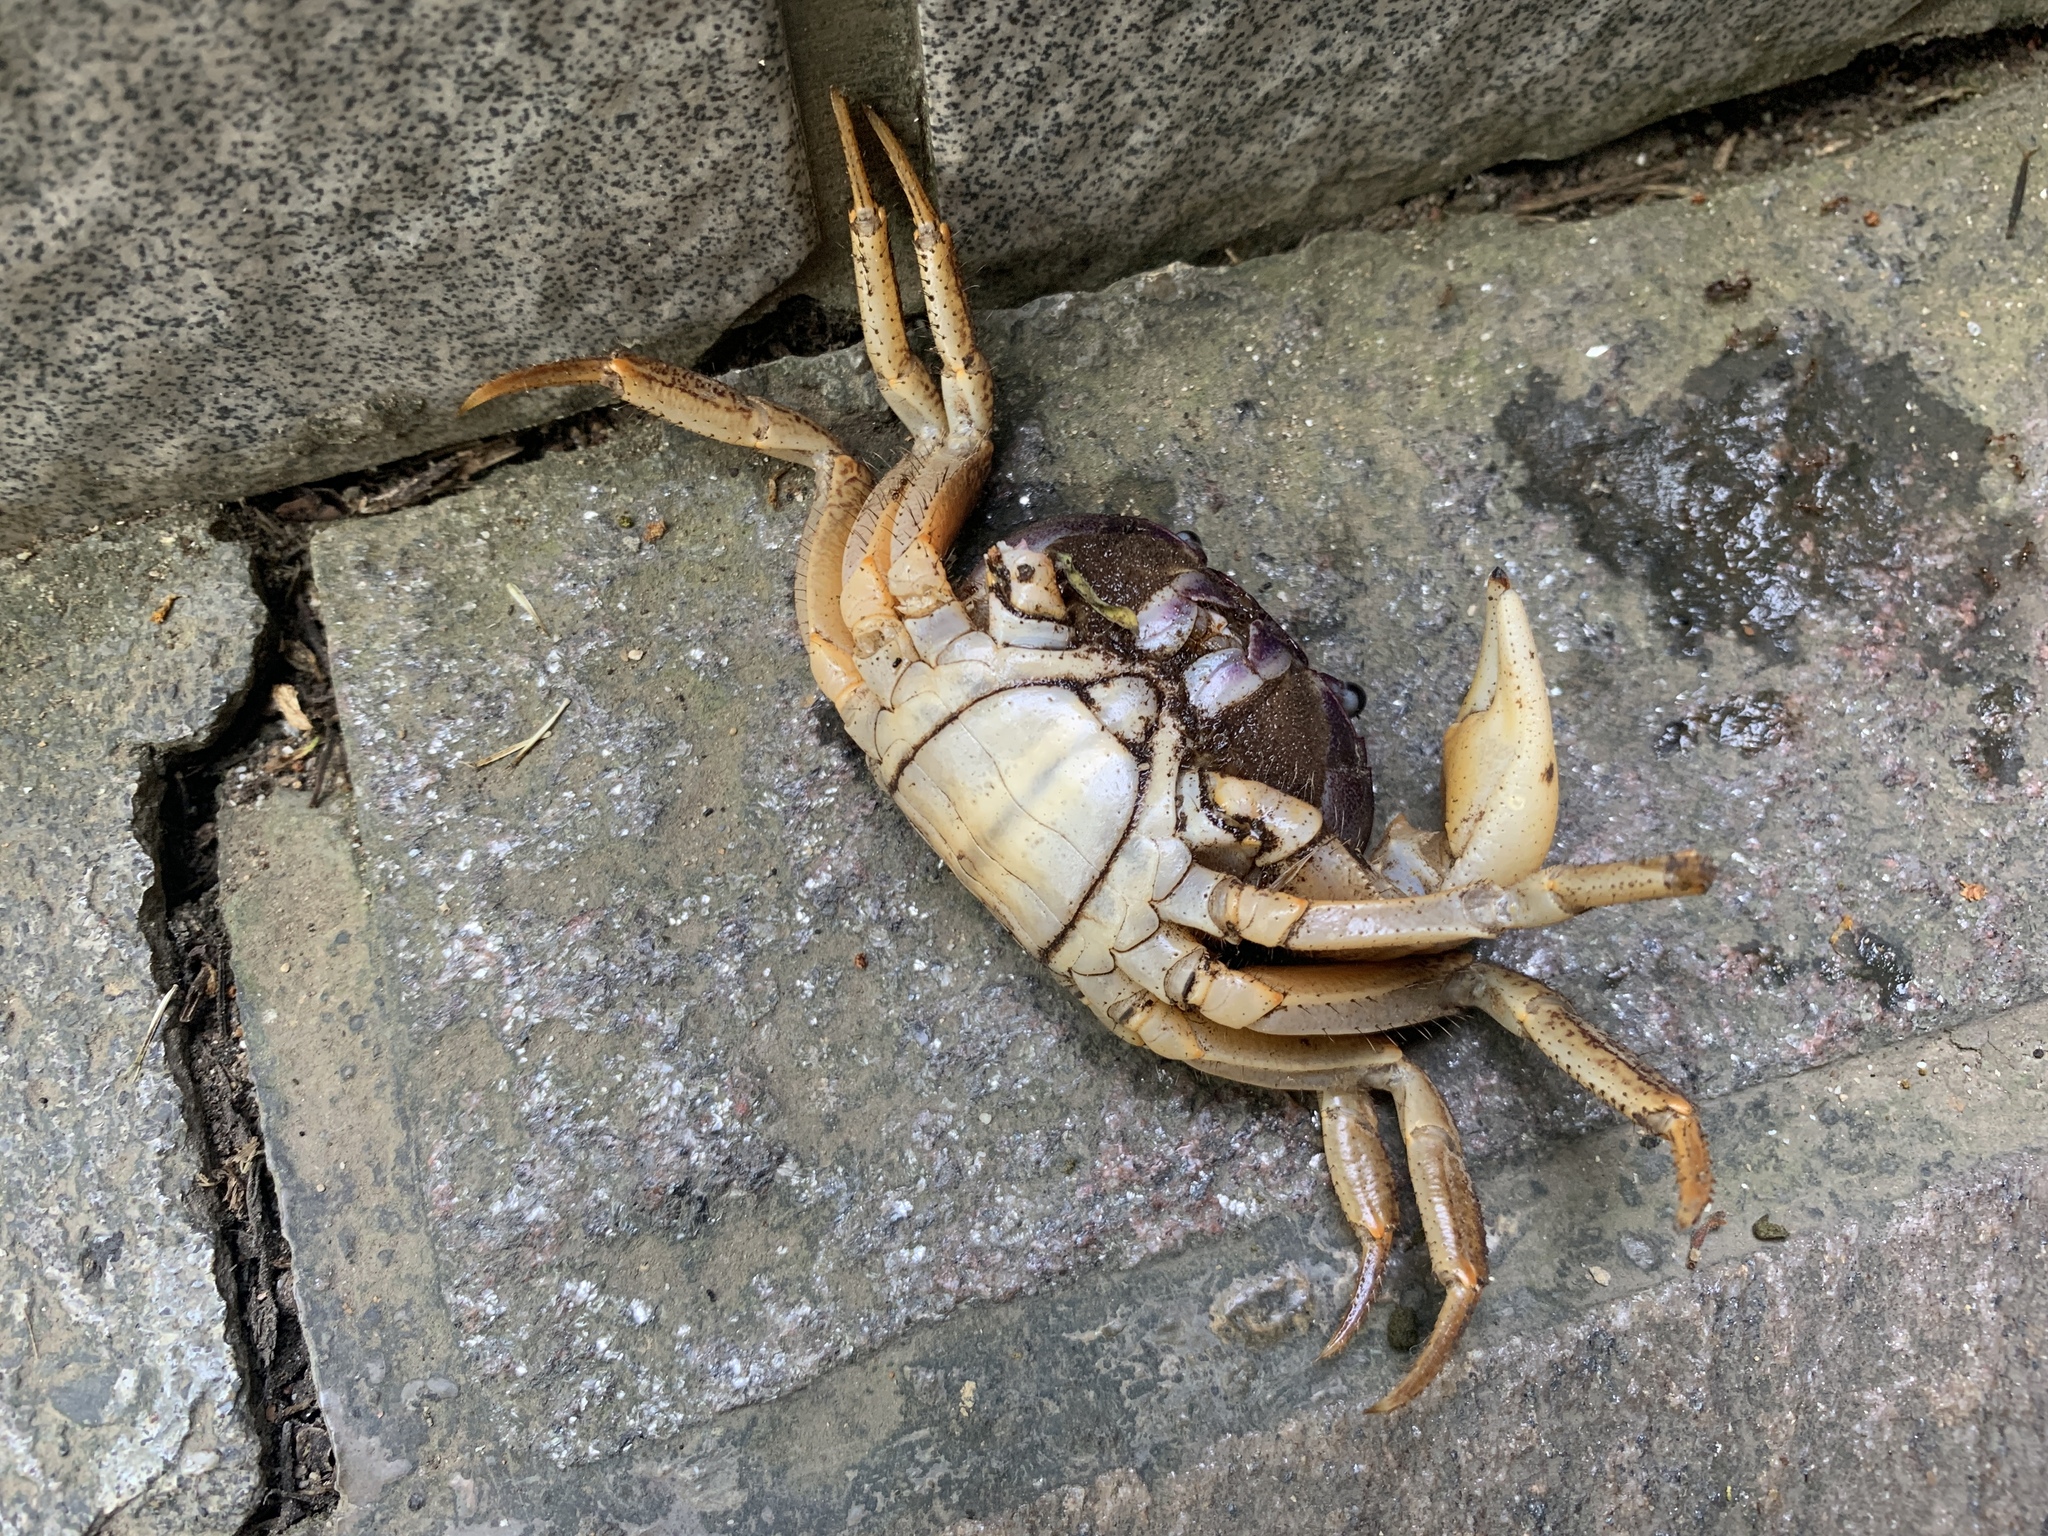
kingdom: Animalia
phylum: Arthropoda
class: Malacostraca
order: Decapoda
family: Gecarcinidae
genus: Tuerkayana
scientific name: Tuerkayana hirtipes
